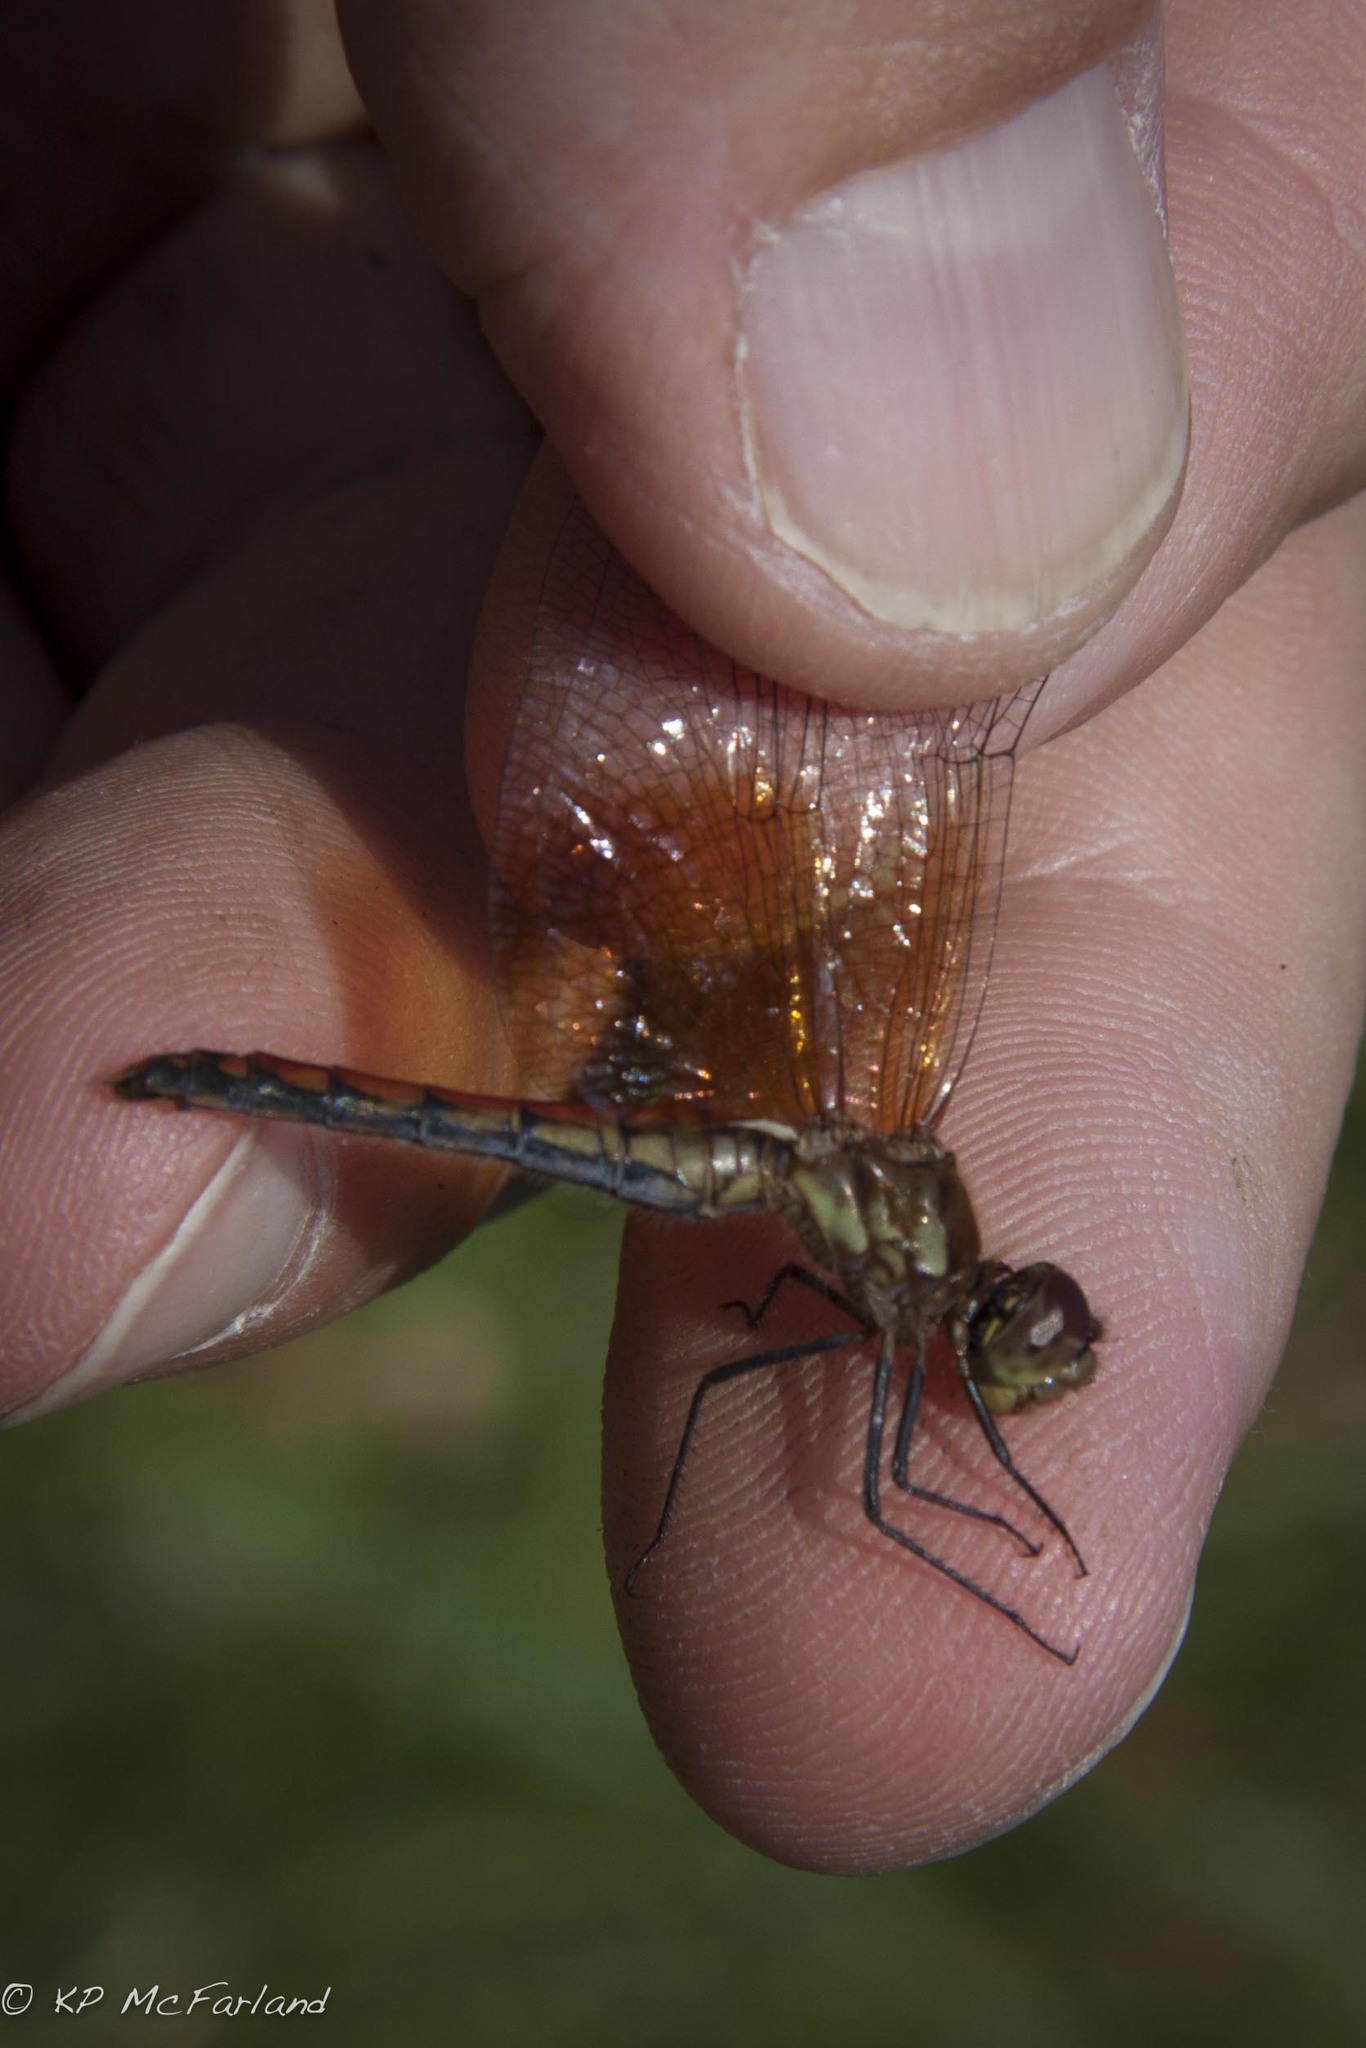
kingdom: Animalia
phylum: Arthropoda
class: Insecta
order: Odonata
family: Libellulidae
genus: Sympetrum
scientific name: Sympetrum semicinctum
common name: Band-winged meadowhawk
